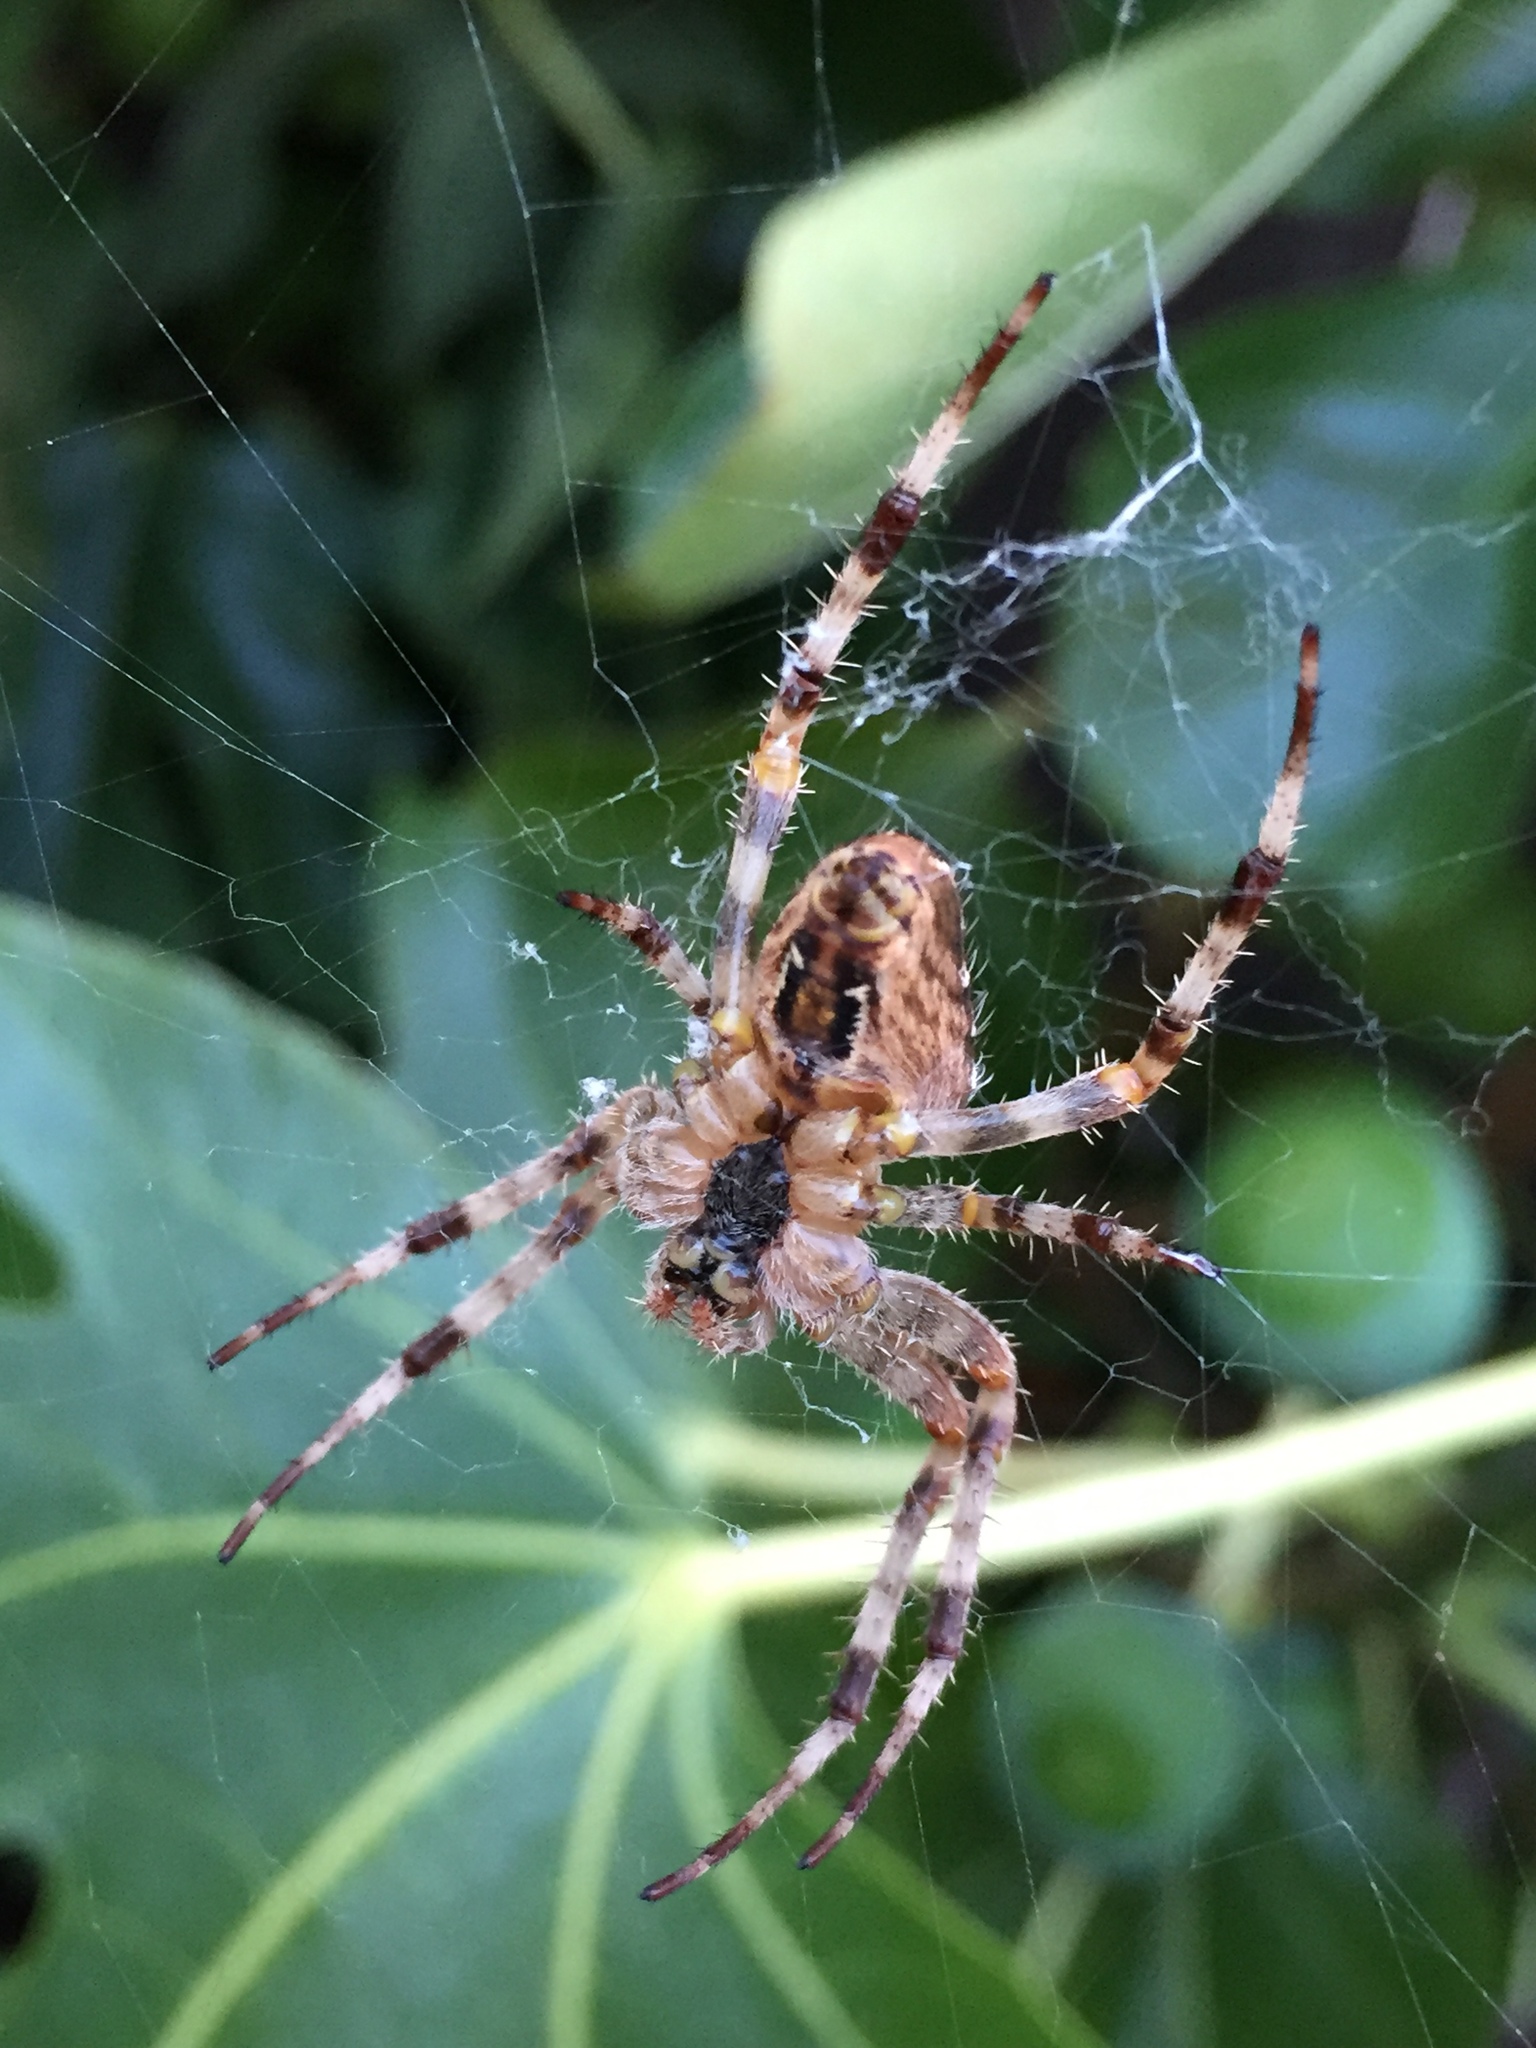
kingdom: Animalia
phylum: Arthropoda
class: Arachnida
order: Araneae
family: Araneidae
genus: Araneus
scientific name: Araneus diadematus
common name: Cross orbweaver
